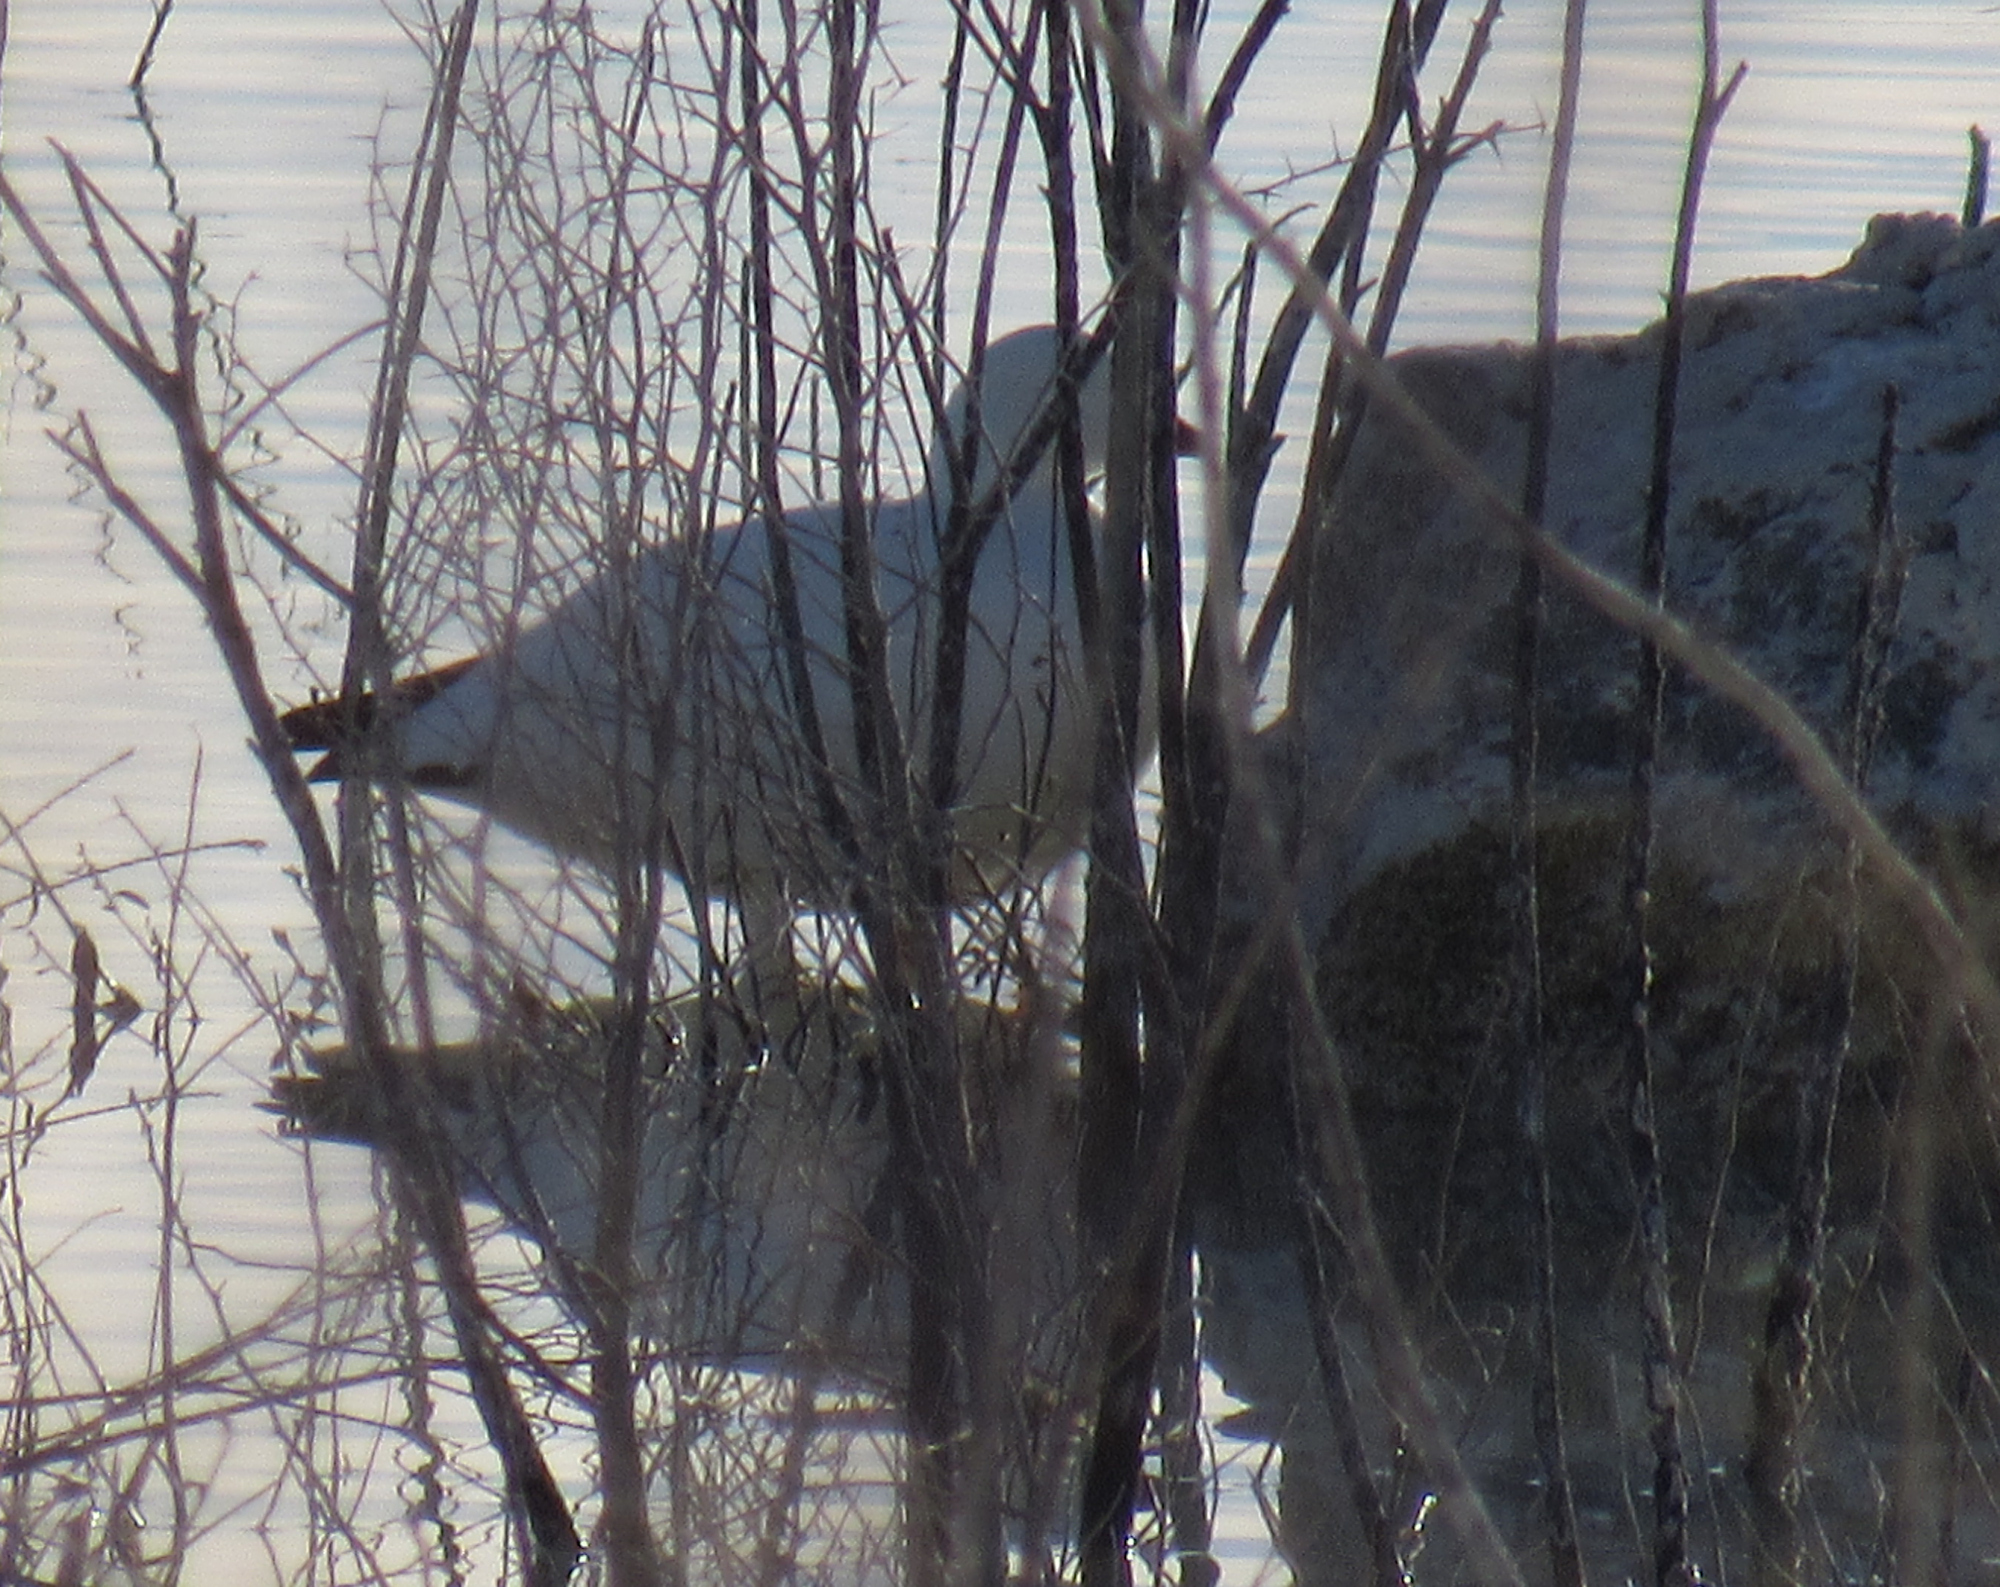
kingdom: Animalia
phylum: Chordata
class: Aves
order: Anseriformes
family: Anatidae
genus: Anser
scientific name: Anser rossii
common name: Ross's goose
